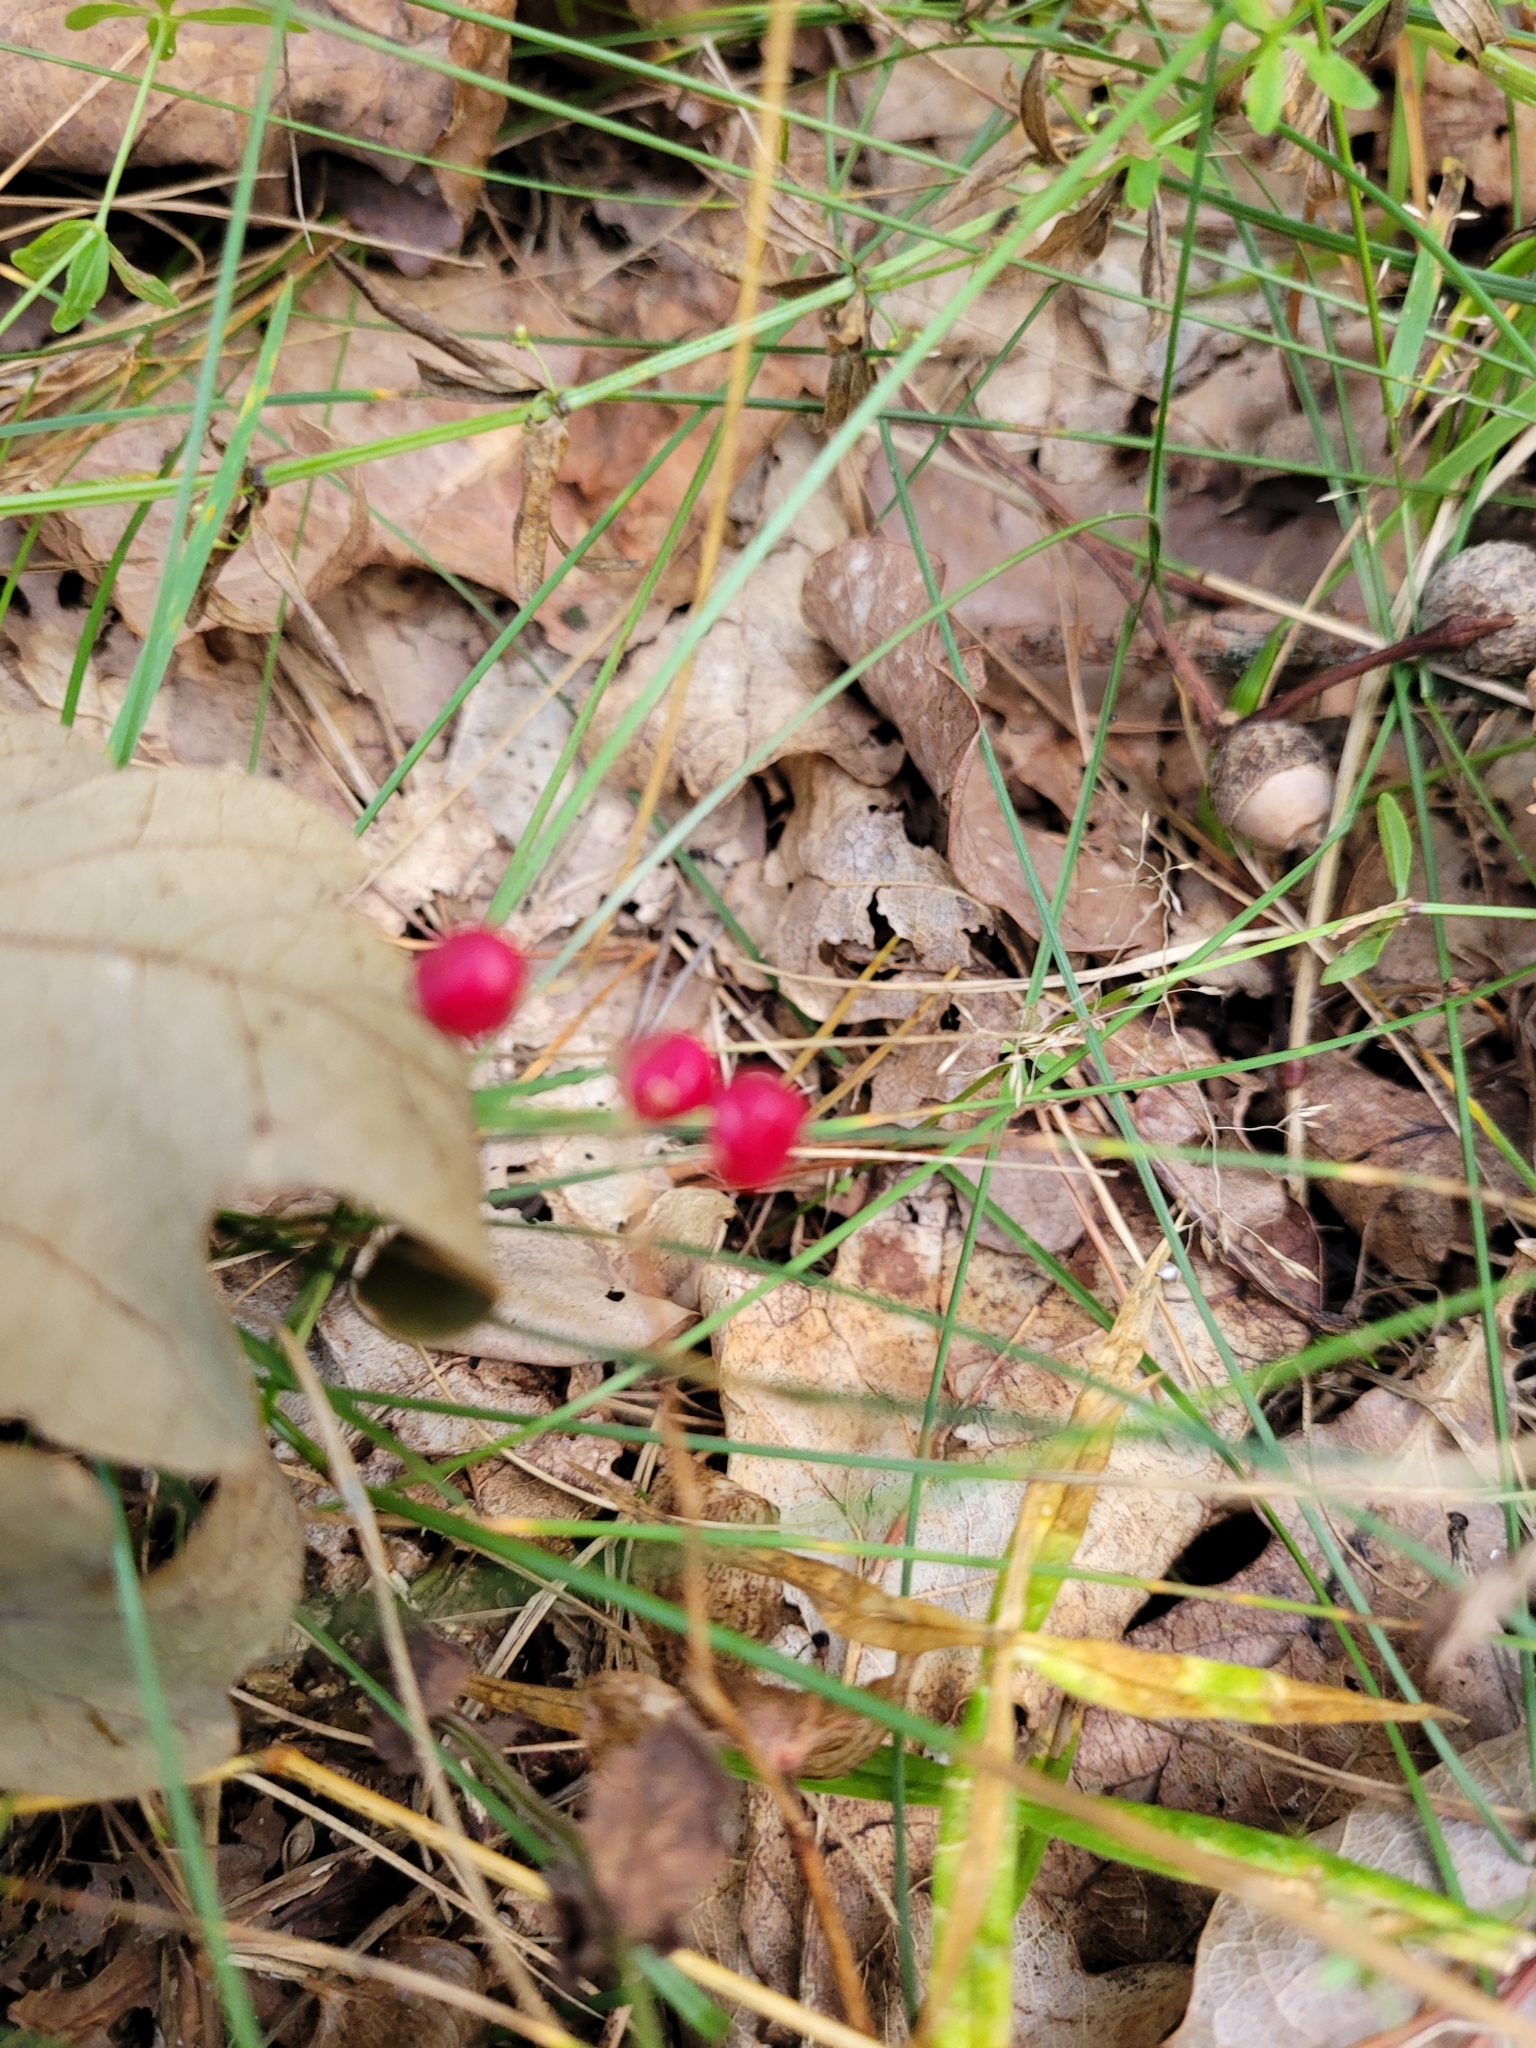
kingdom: Plantae
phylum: Tracheophyta
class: Liliopsida
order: Asparagales
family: Asparagaceae
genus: Maianthemum
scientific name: Maianthemum bifolium
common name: May lily
